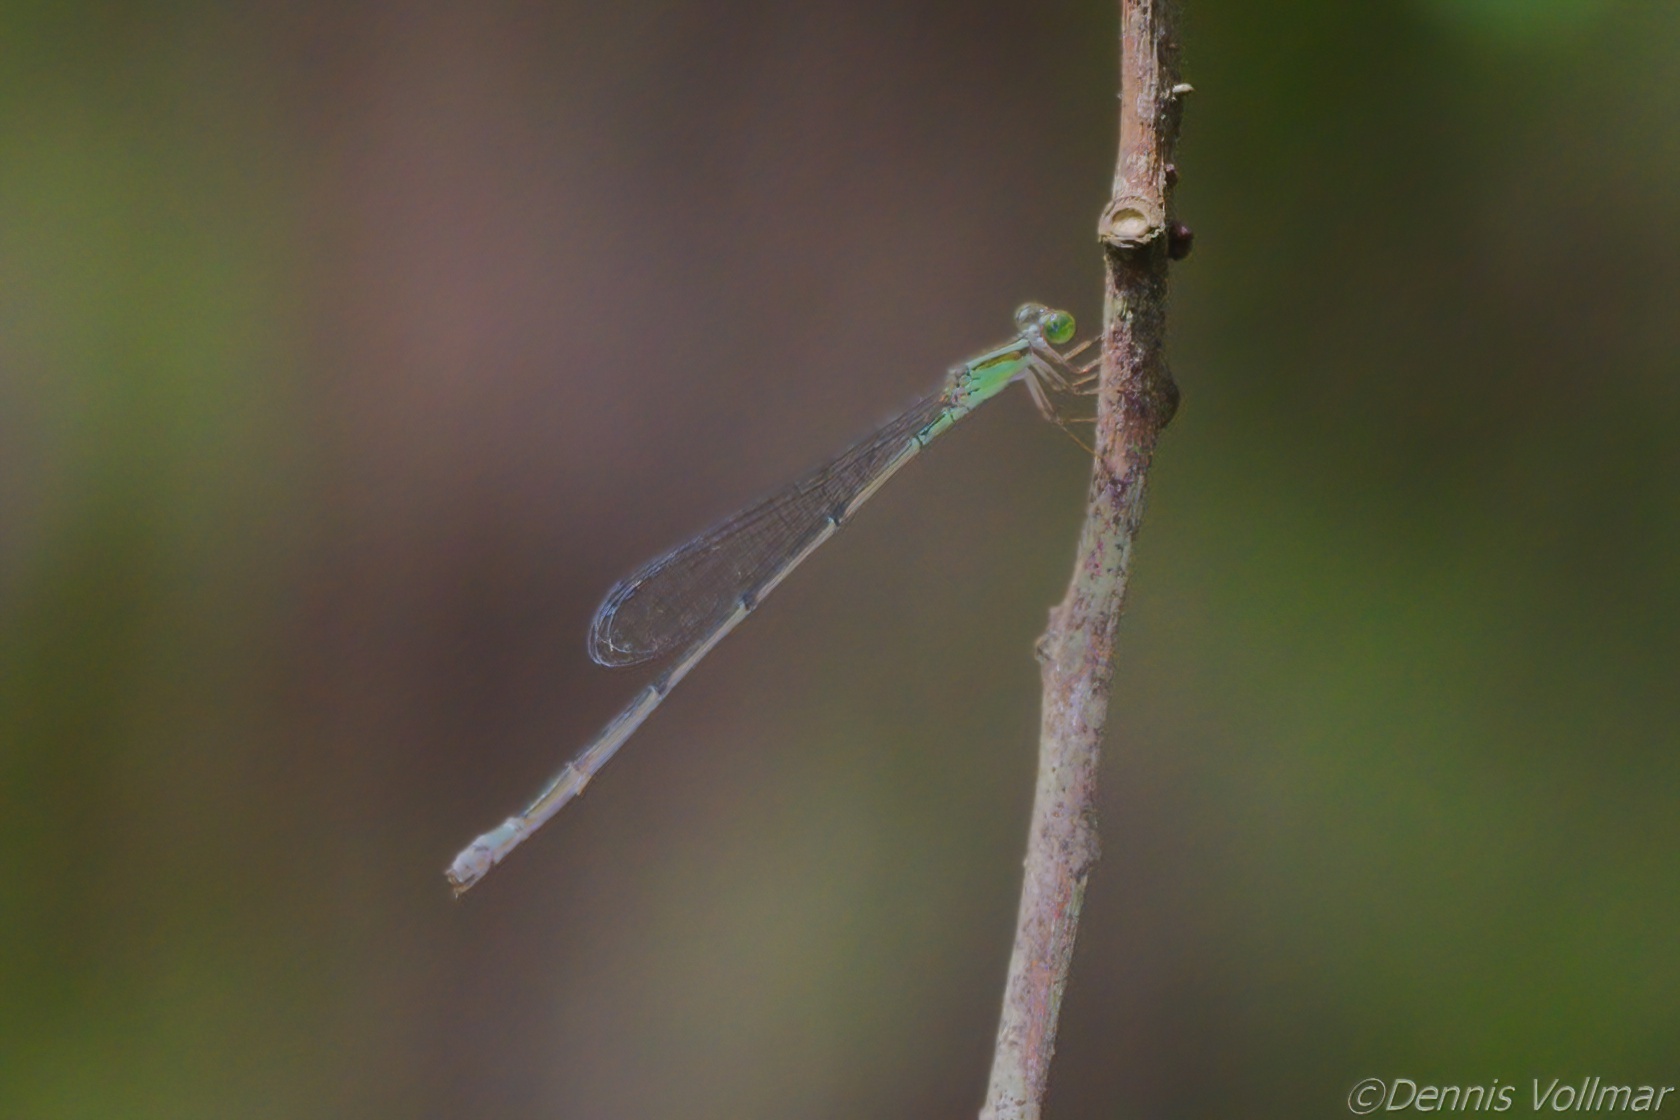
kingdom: Animalia
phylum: Arthropoda
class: Insecta
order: Odonata
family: Coenagrionidae
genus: Leptobasis
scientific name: Leptobasis lucifer
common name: Lucifer swampdamsel
